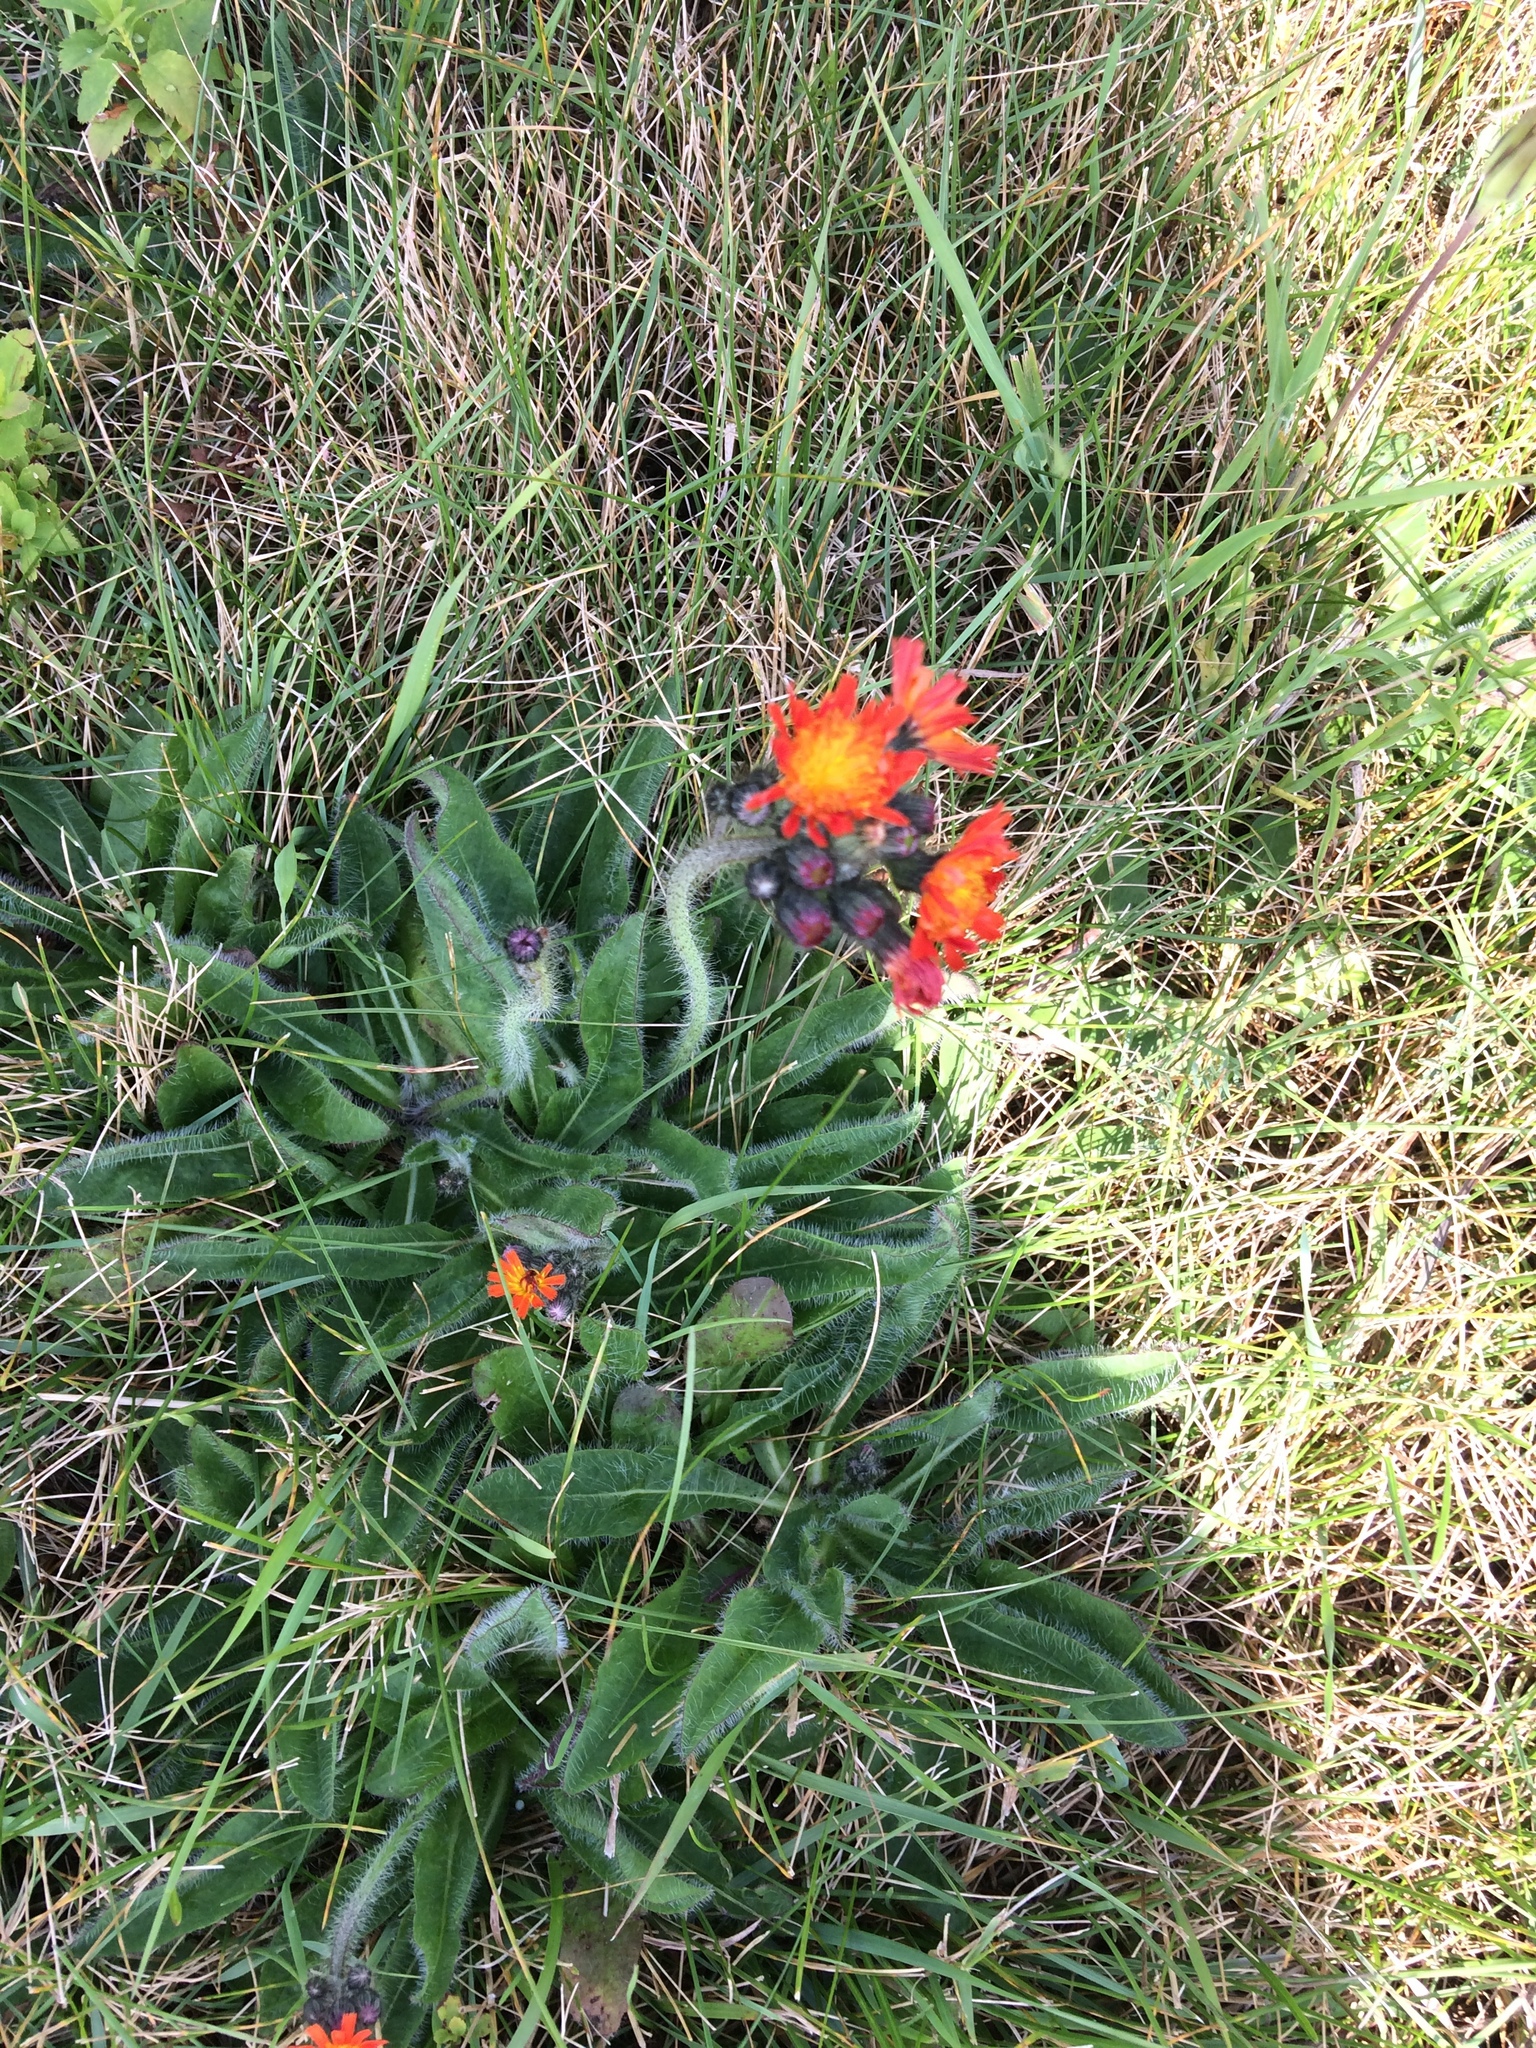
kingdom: Plantae
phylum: Tracheophyta
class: Magnoliopsida
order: Asterales
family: Asteraceae
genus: Pilosella
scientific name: Pilosella aurantiaca
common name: Fox-and-cubs
